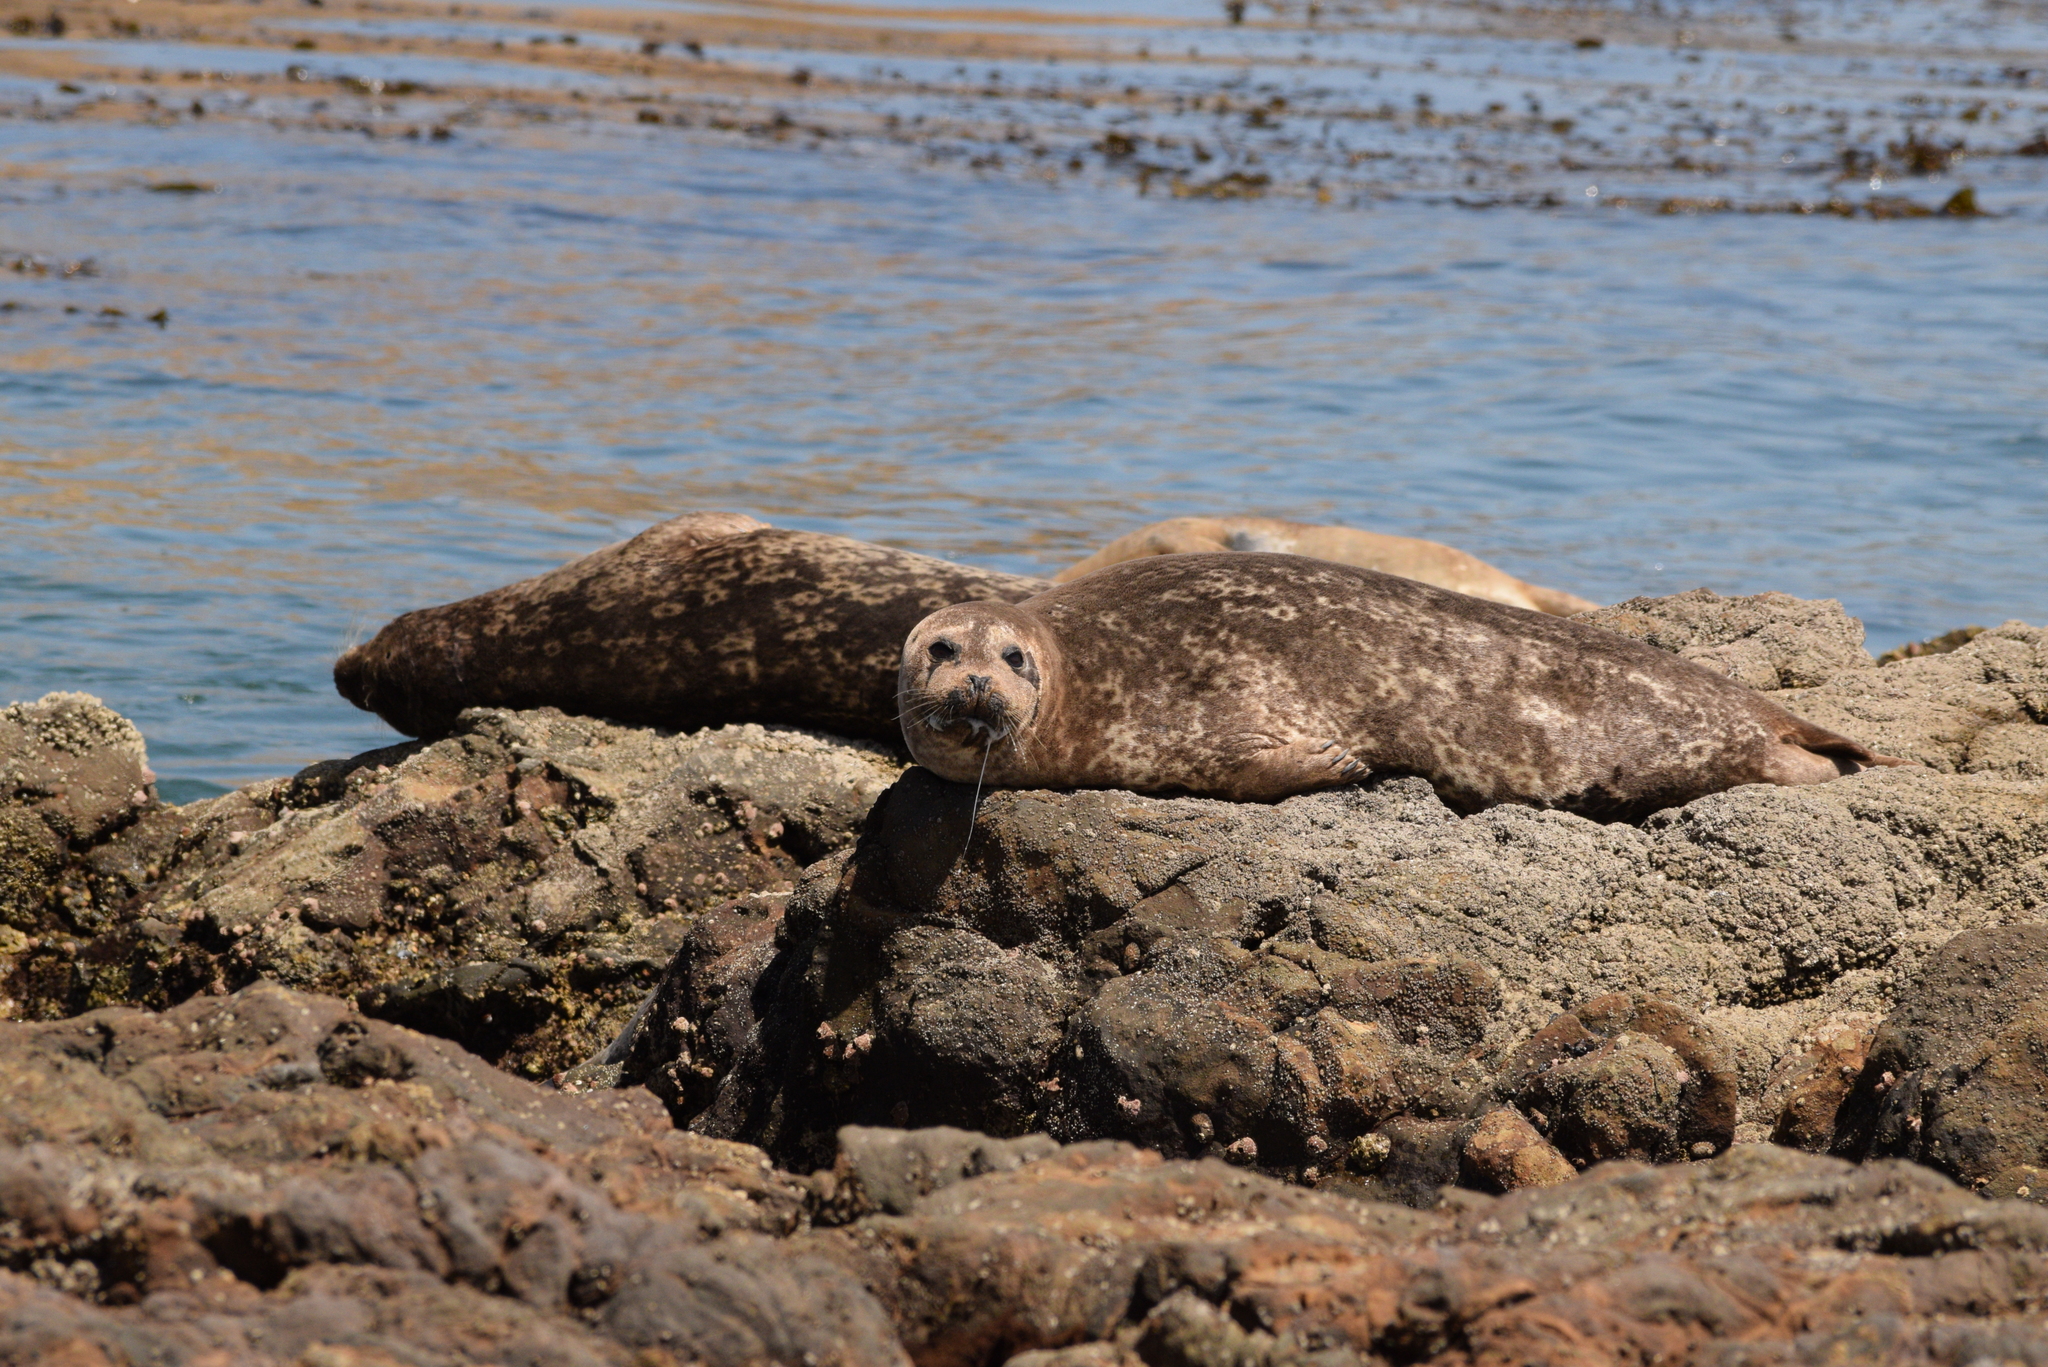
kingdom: Animalia
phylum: Chordata
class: Mammalia
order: Carnivora
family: Phocidae
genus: Phoca
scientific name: Phoca vitulina
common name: Harbor seal
